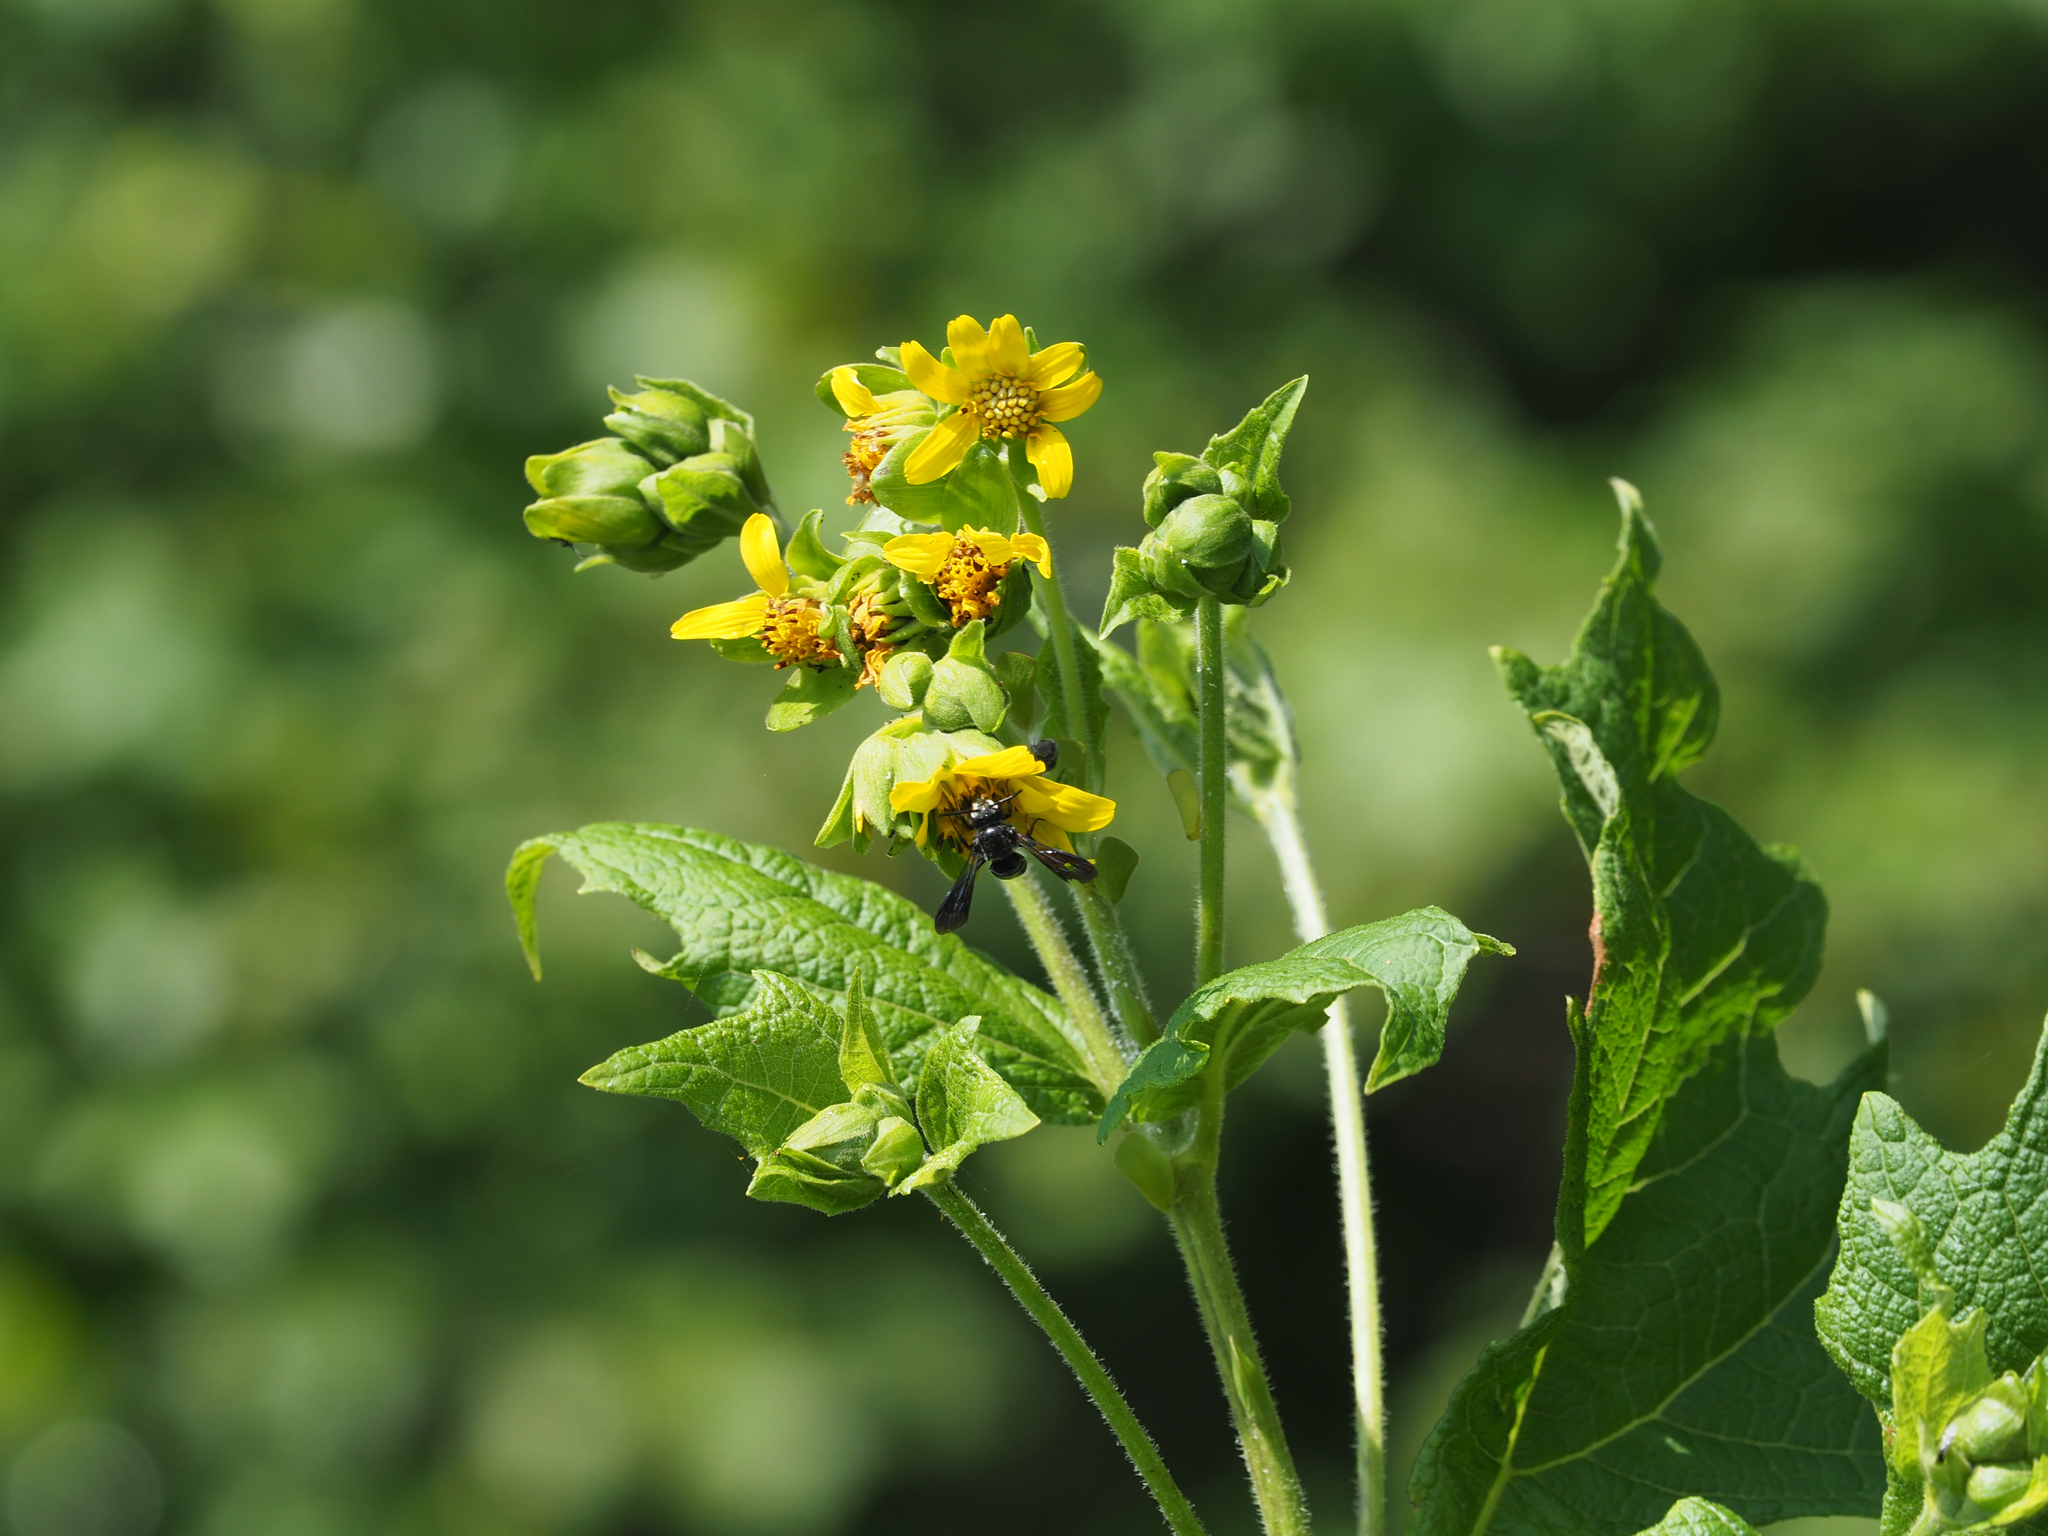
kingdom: Plantae
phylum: Tracheophyta
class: Magnoliopsida
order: Asterales
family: Asteraceae
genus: Smallanthus
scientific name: Smallanthus uvedalia
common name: Bear's-foot
